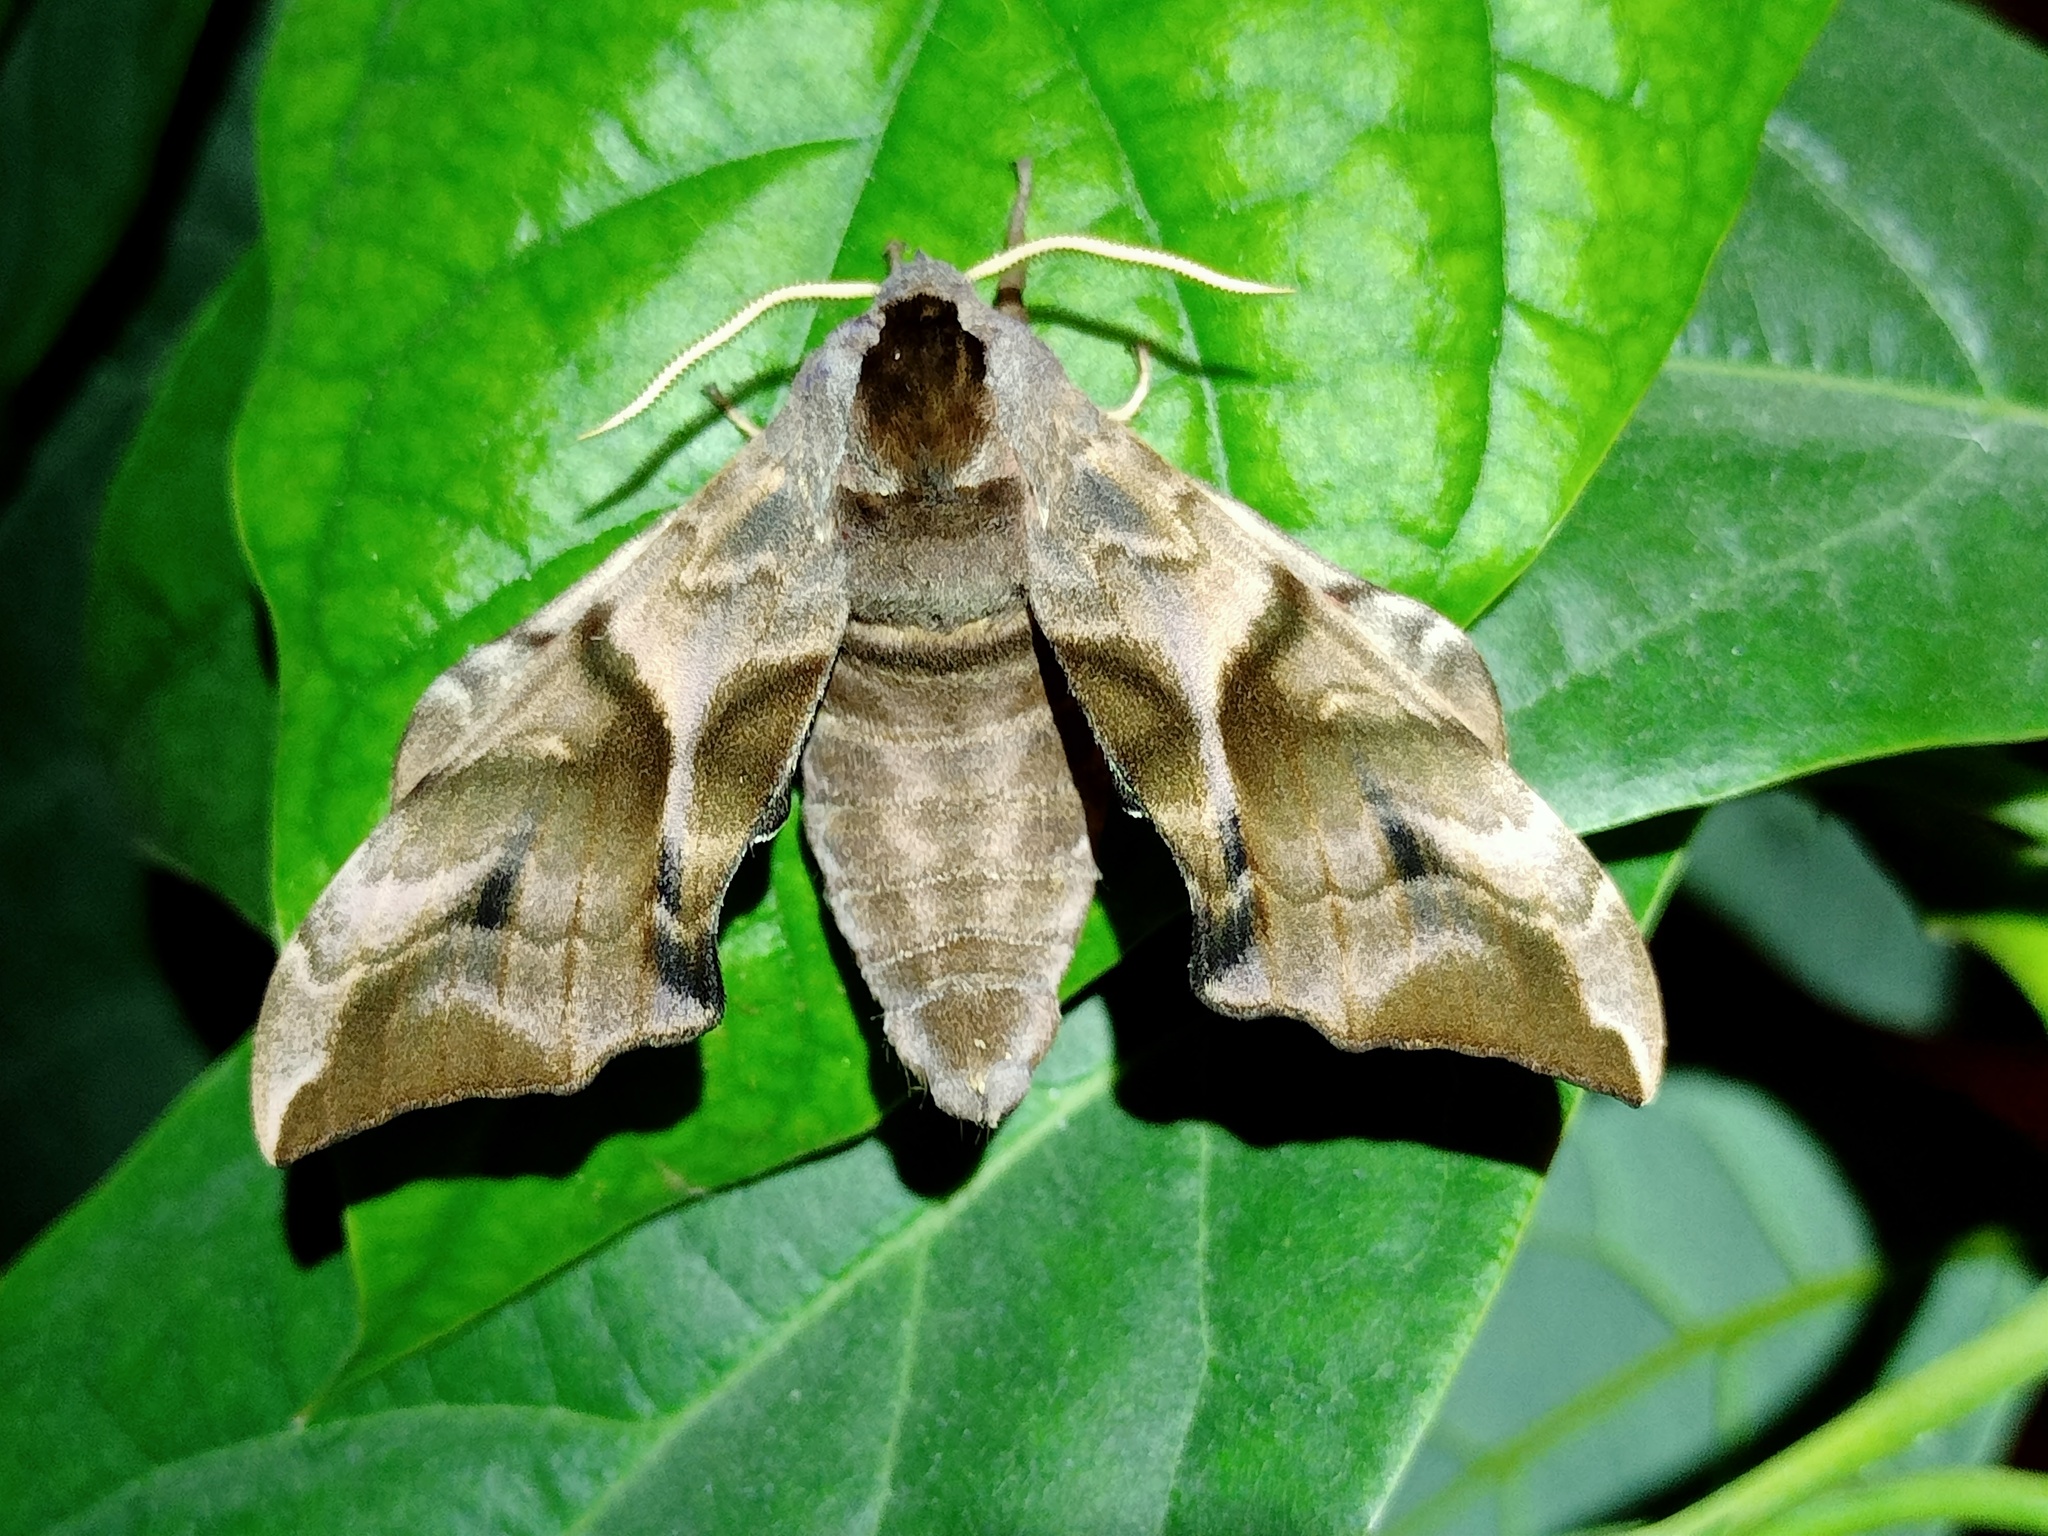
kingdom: Animalia
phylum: Arthropoda
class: Insecta
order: Lepidoptera
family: Sphingidae
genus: Smerinthus
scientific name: Smerinthus ocellata
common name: Eyed hawk-moth
